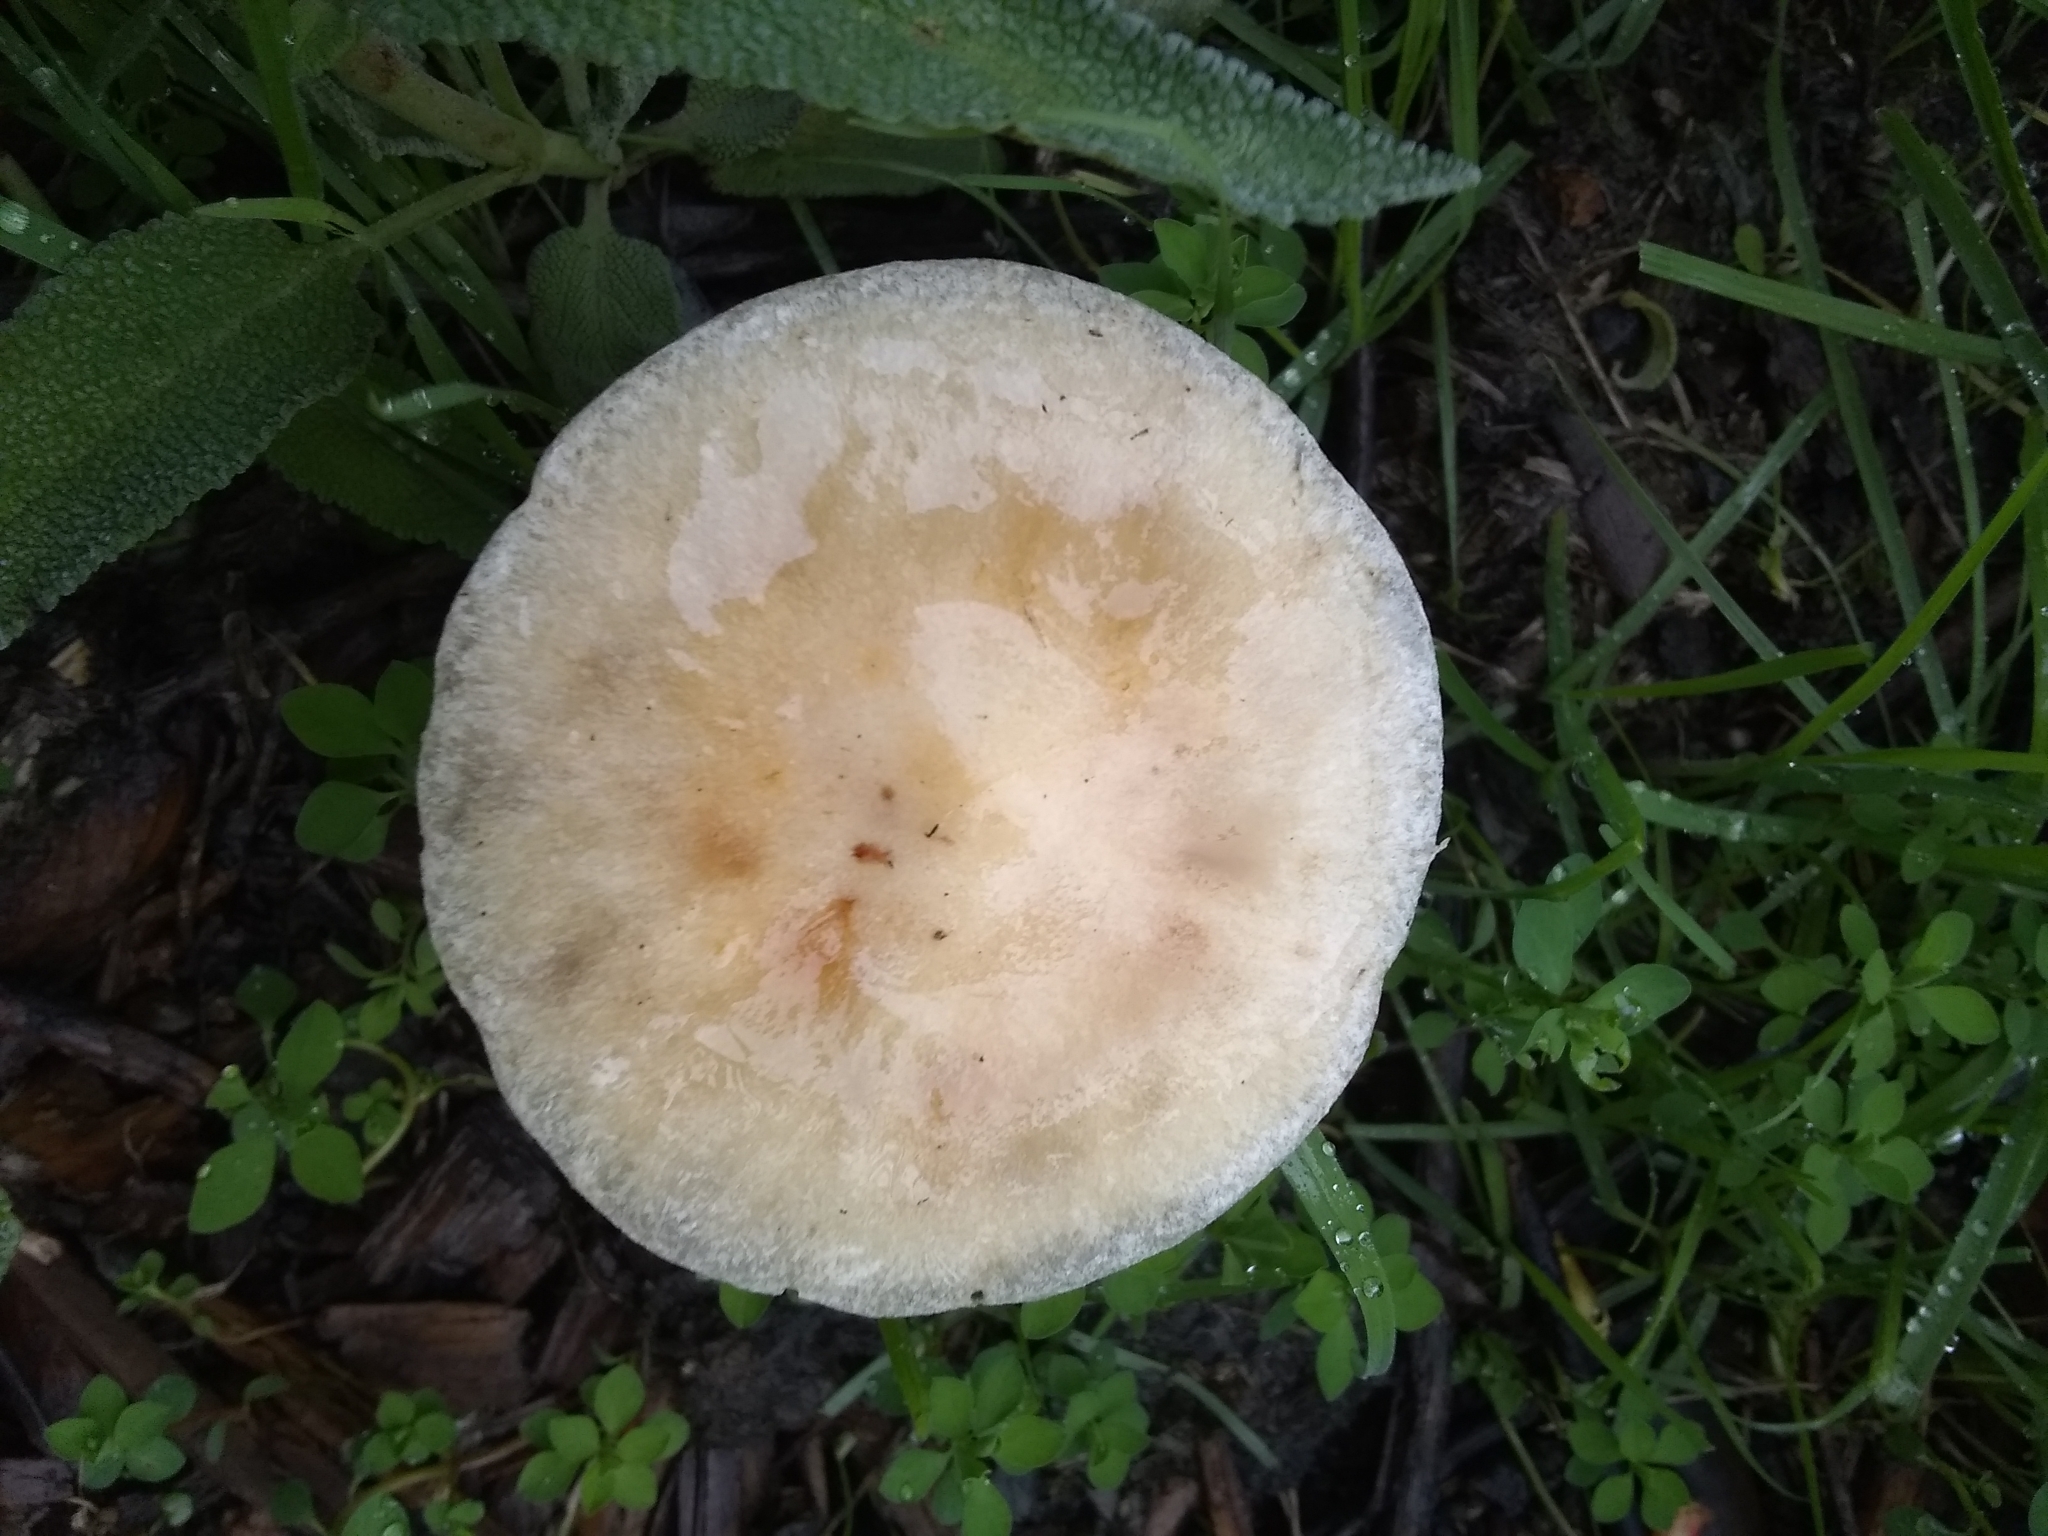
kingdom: Fungi
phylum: Basidiomycota
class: Agaricomycetes
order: Agaricales
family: Strophariaceae
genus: Leratiomyces
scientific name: Leratiomyces percevalii
